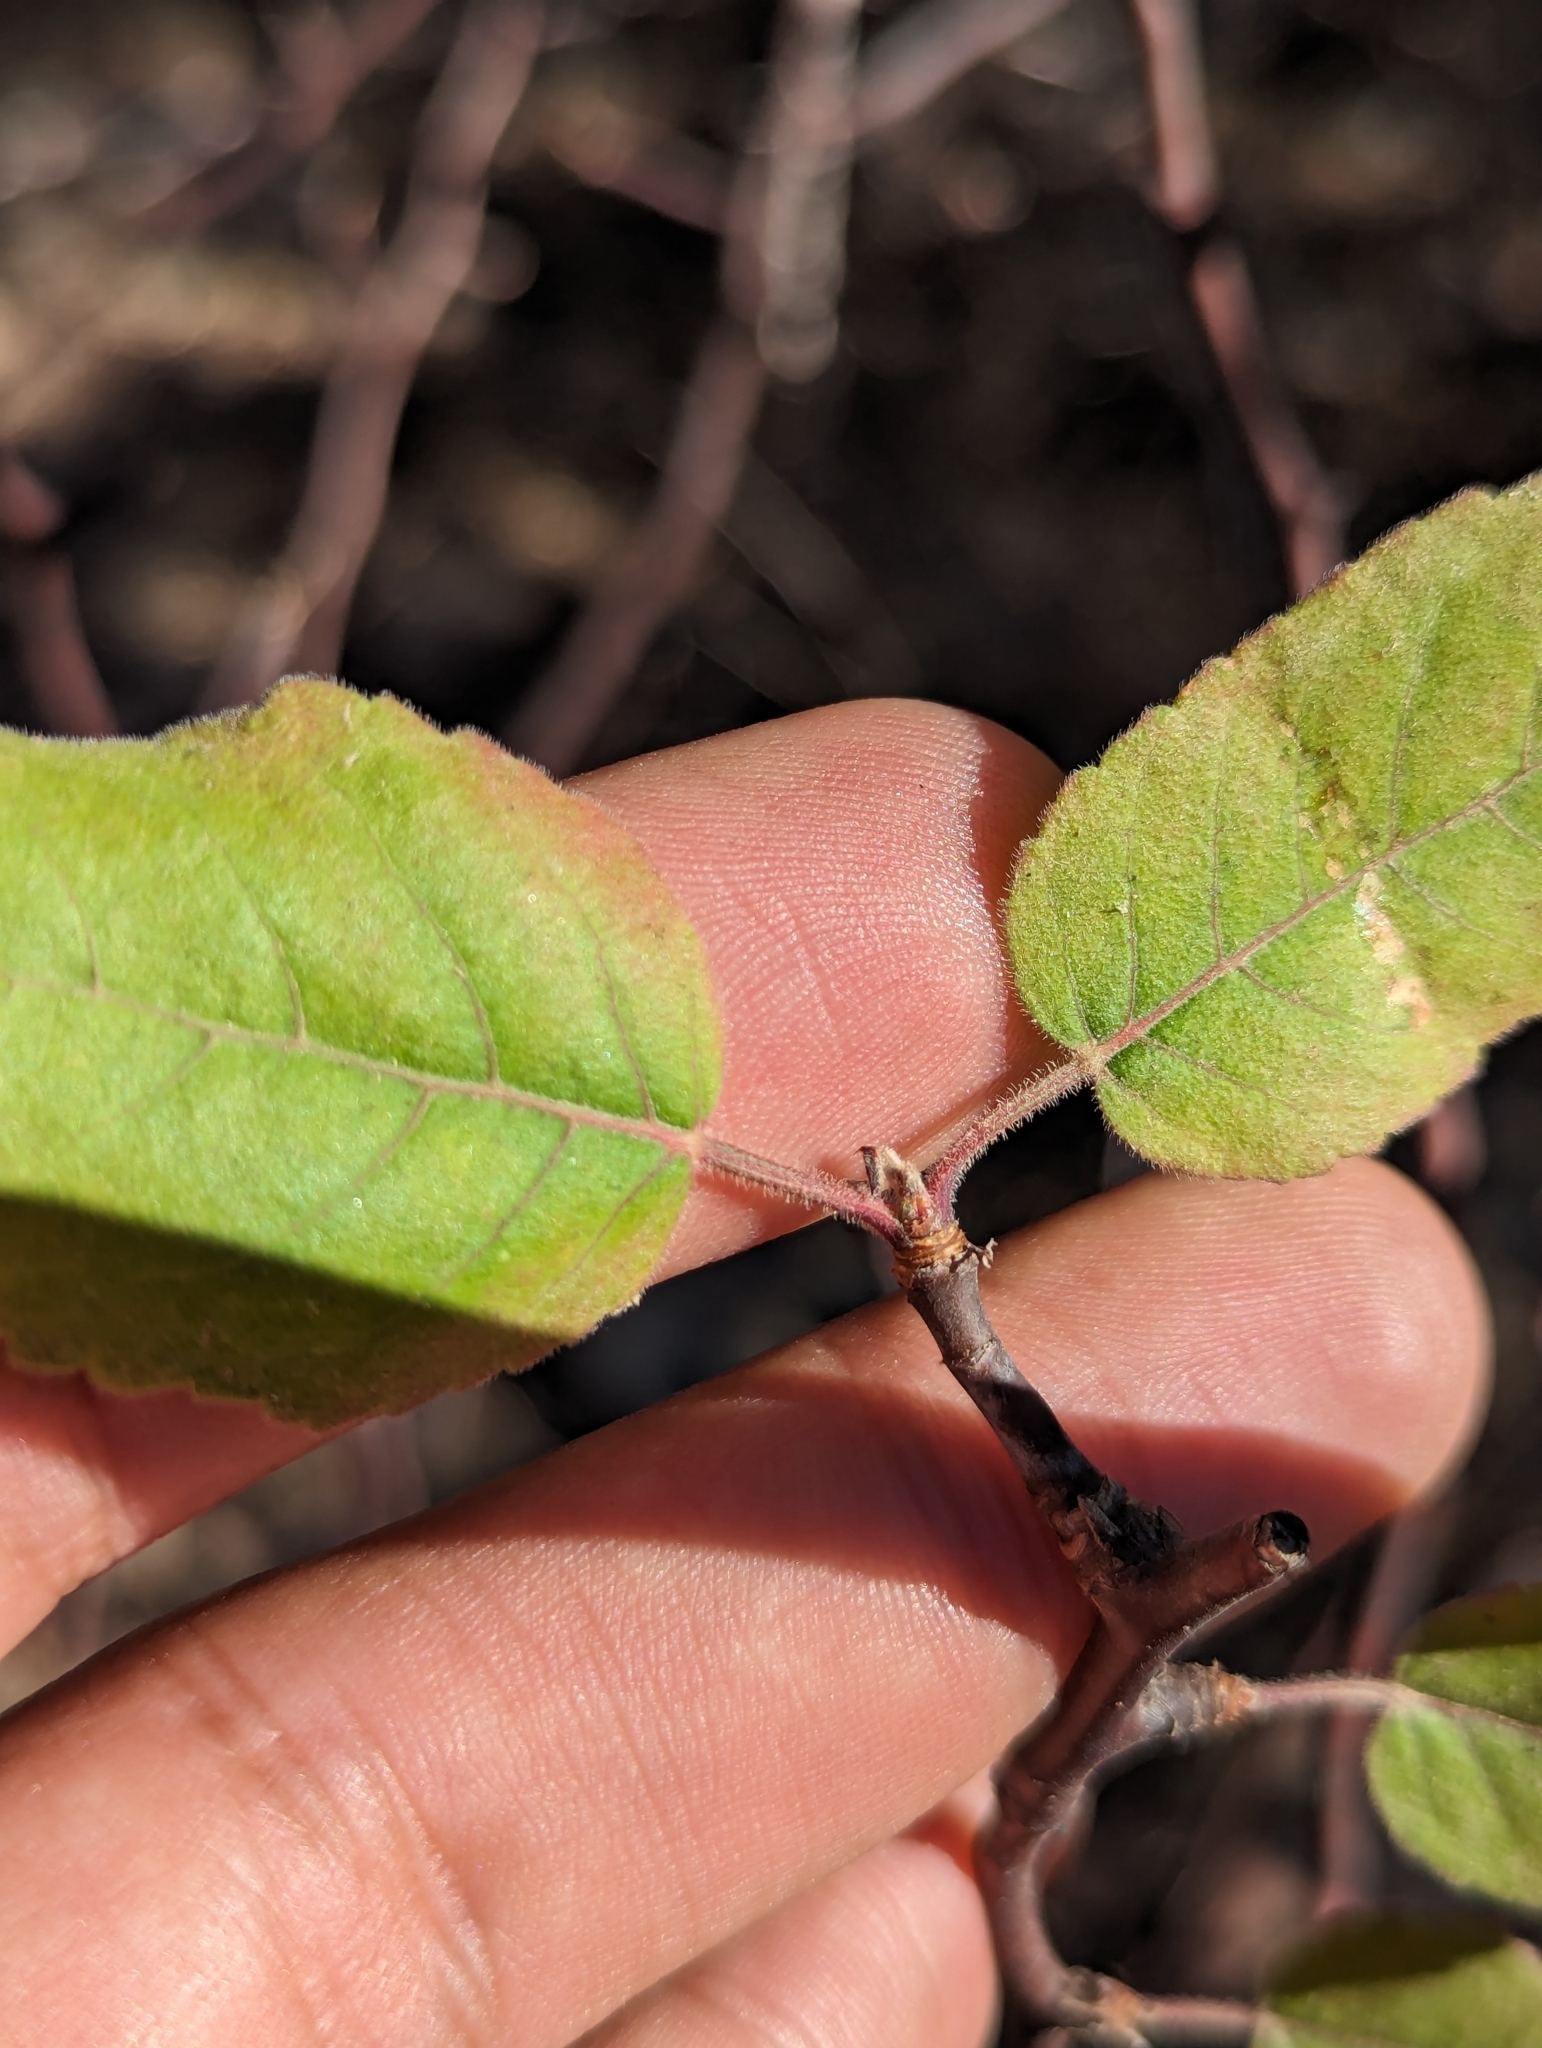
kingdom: Plantae
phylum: Tracheophyta
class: Magnoliopsida
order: Sapindales
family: Burseraceae
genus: Bursera
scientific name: Bursera epinnata
